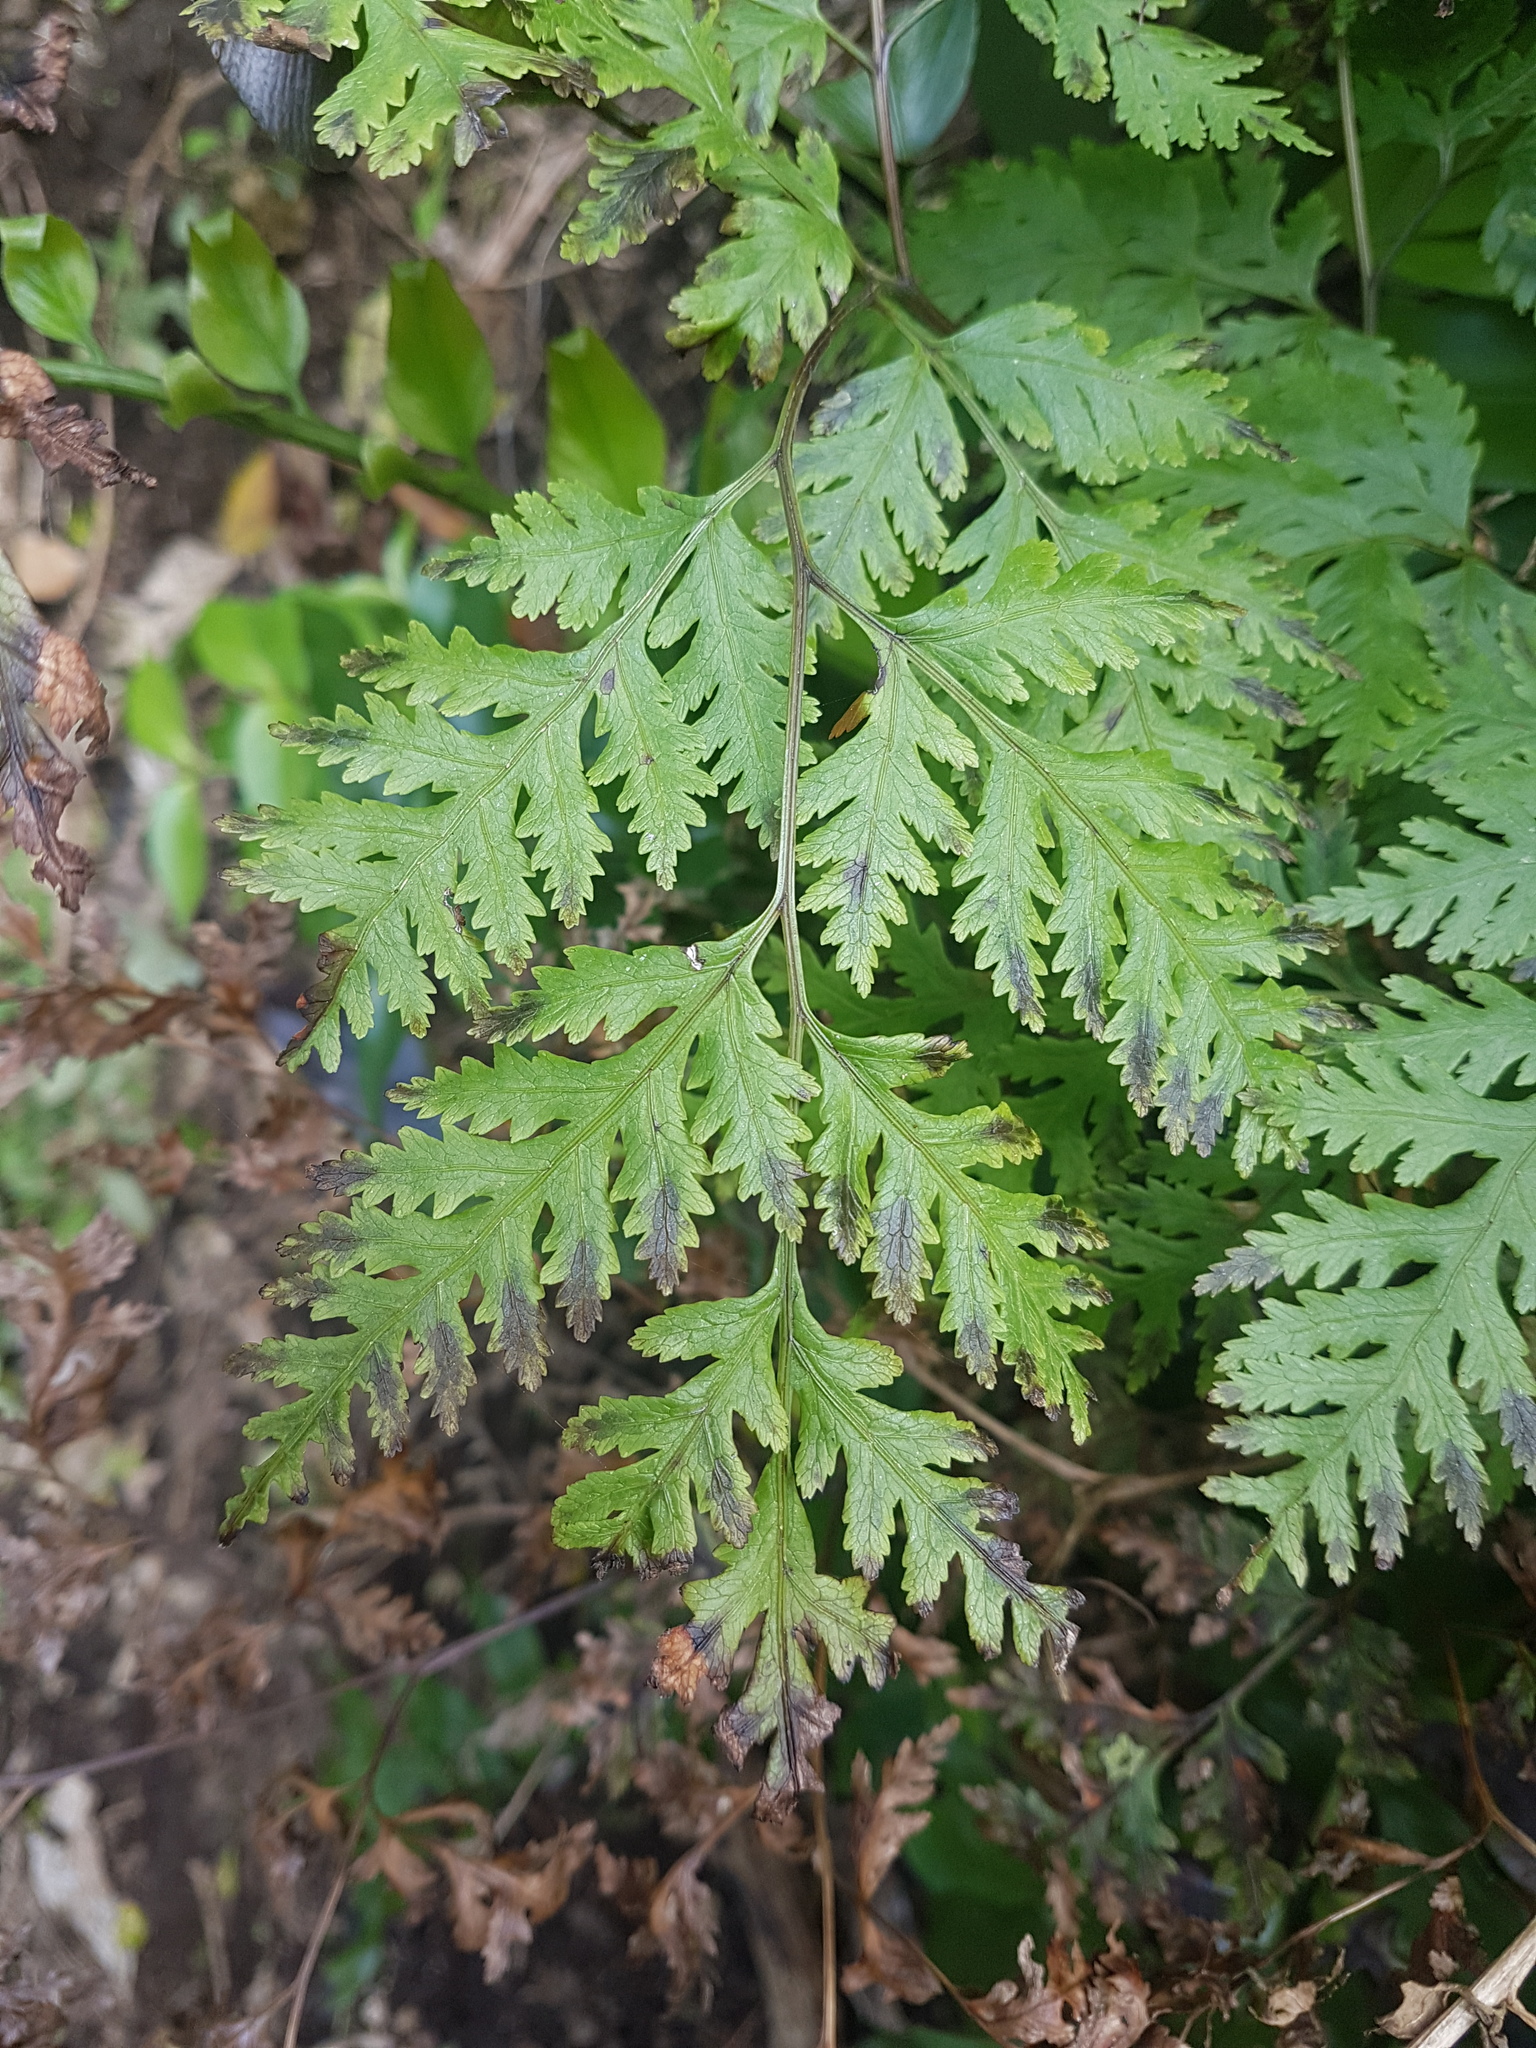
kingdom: Plantae
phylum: Tracheophyta
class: Polypodiopsida
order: Polypodiales
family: Pteridaceae
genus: Pteris
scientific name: Pteris macilenta
